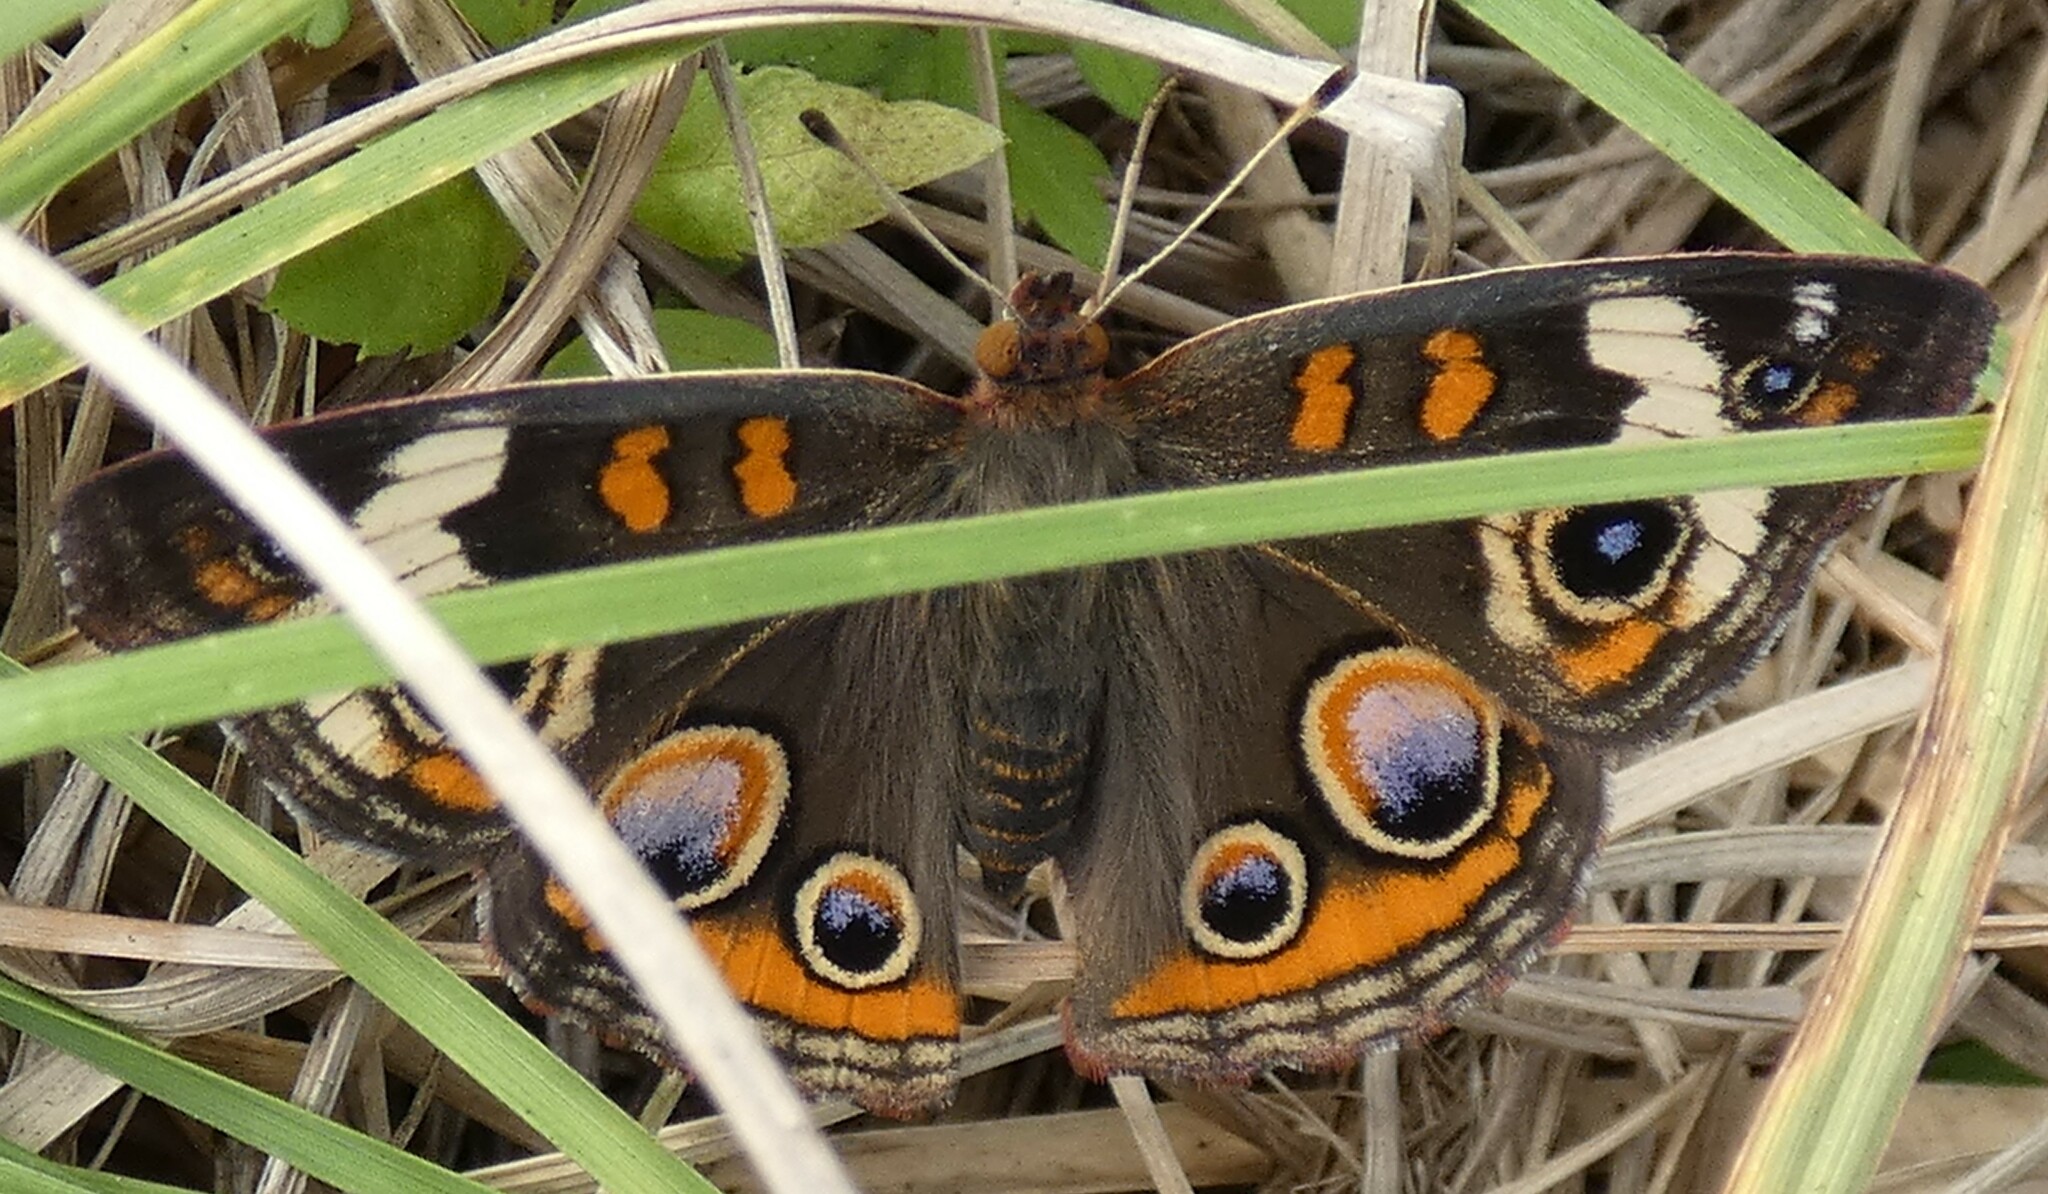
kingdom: Animalia
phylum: Arthropoda
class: Insecta
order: Lepidoptera
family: Nymphalidae
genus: Junonia
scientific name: Junonia coenia
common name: Common buckeye
